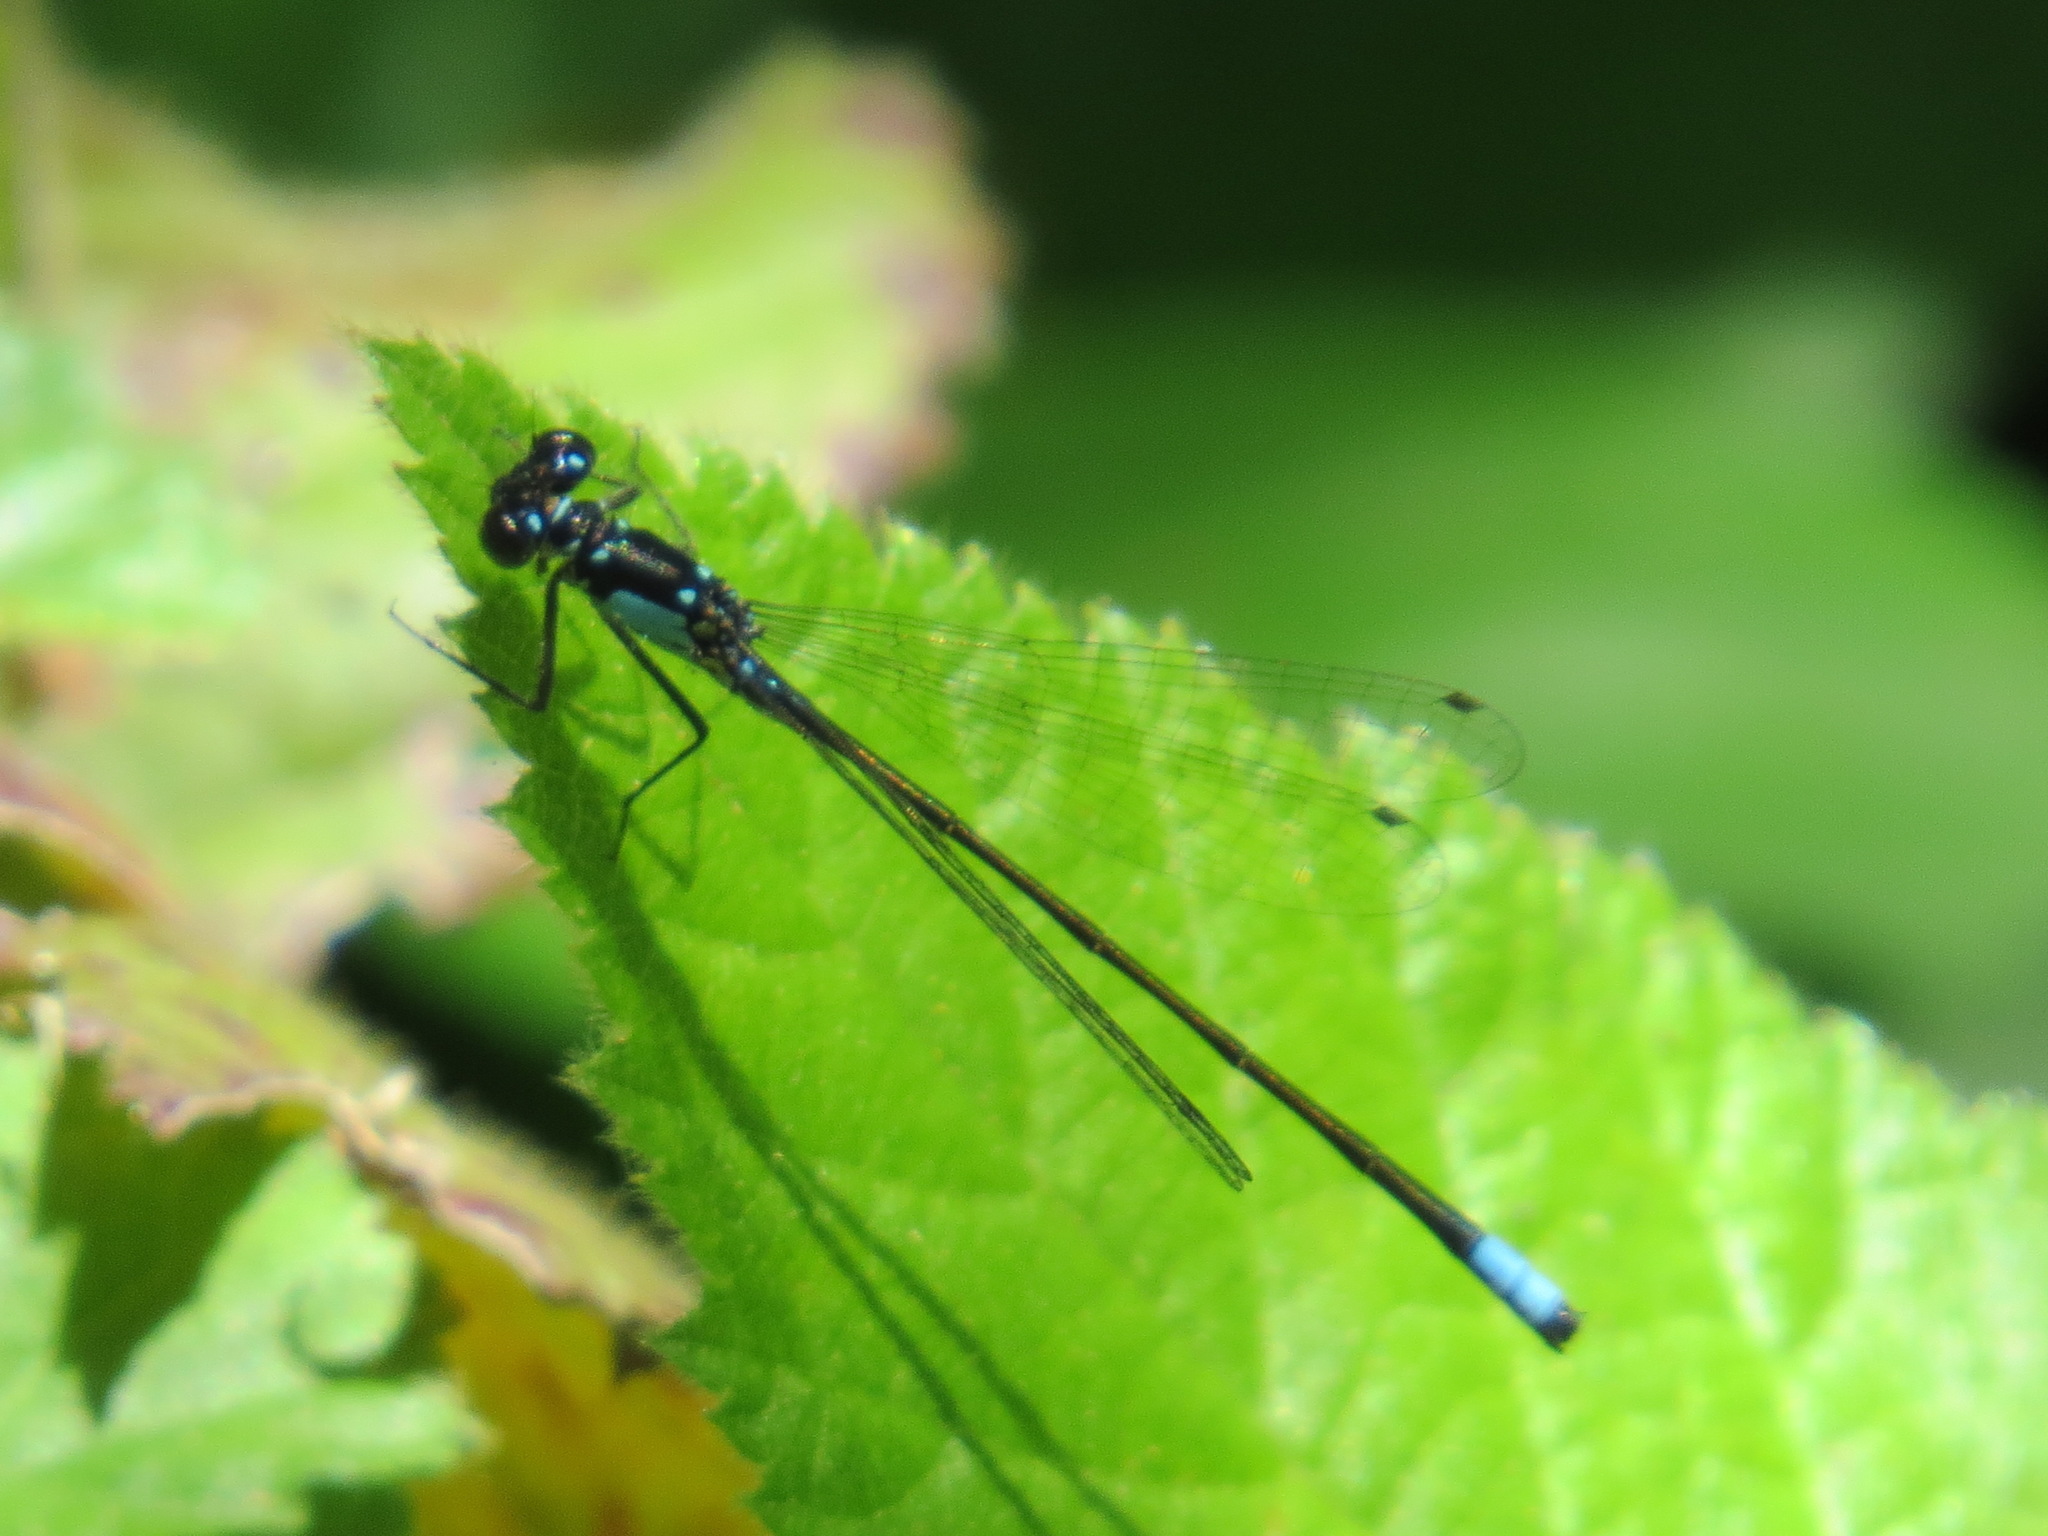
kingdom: Animalia
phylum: Arthropoda
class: Insecta
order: Odonata
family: Coenagrionidae
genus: Ischnura
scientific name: Ischnura cervula
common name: Pacific forktail
